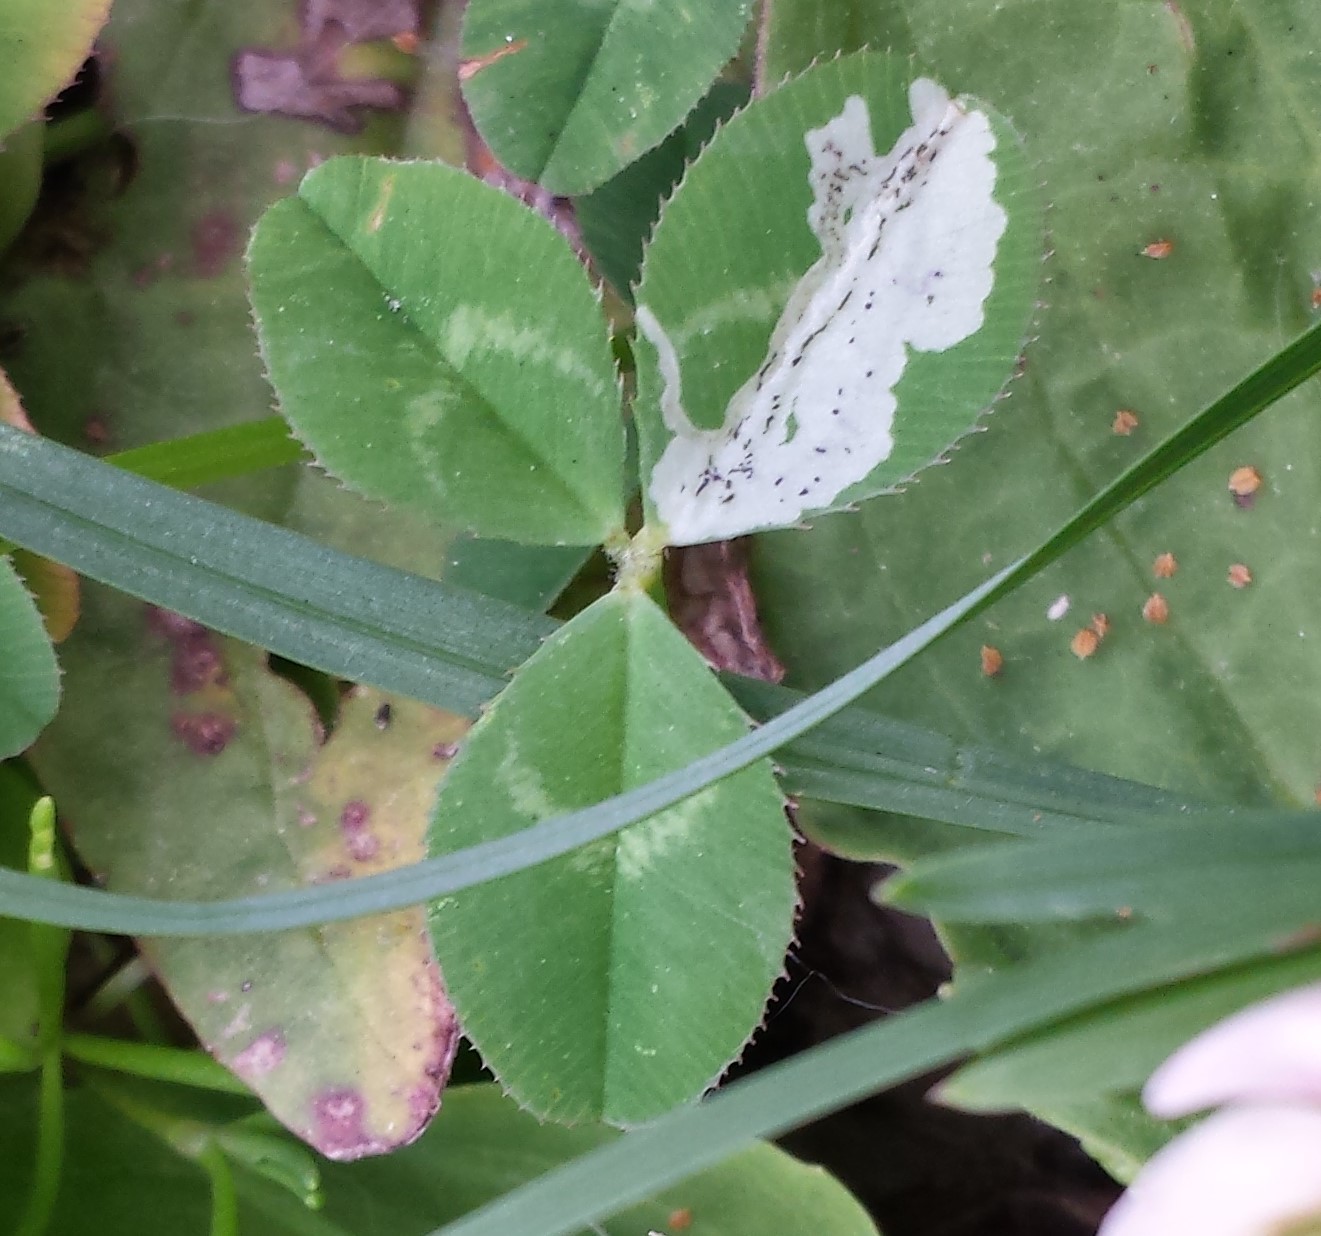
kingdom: Animalia
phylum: Arthropoda
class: Insecta
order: Diptera
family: Agromyzidae
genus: Liriomyza
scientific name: Liriomyza fricki
